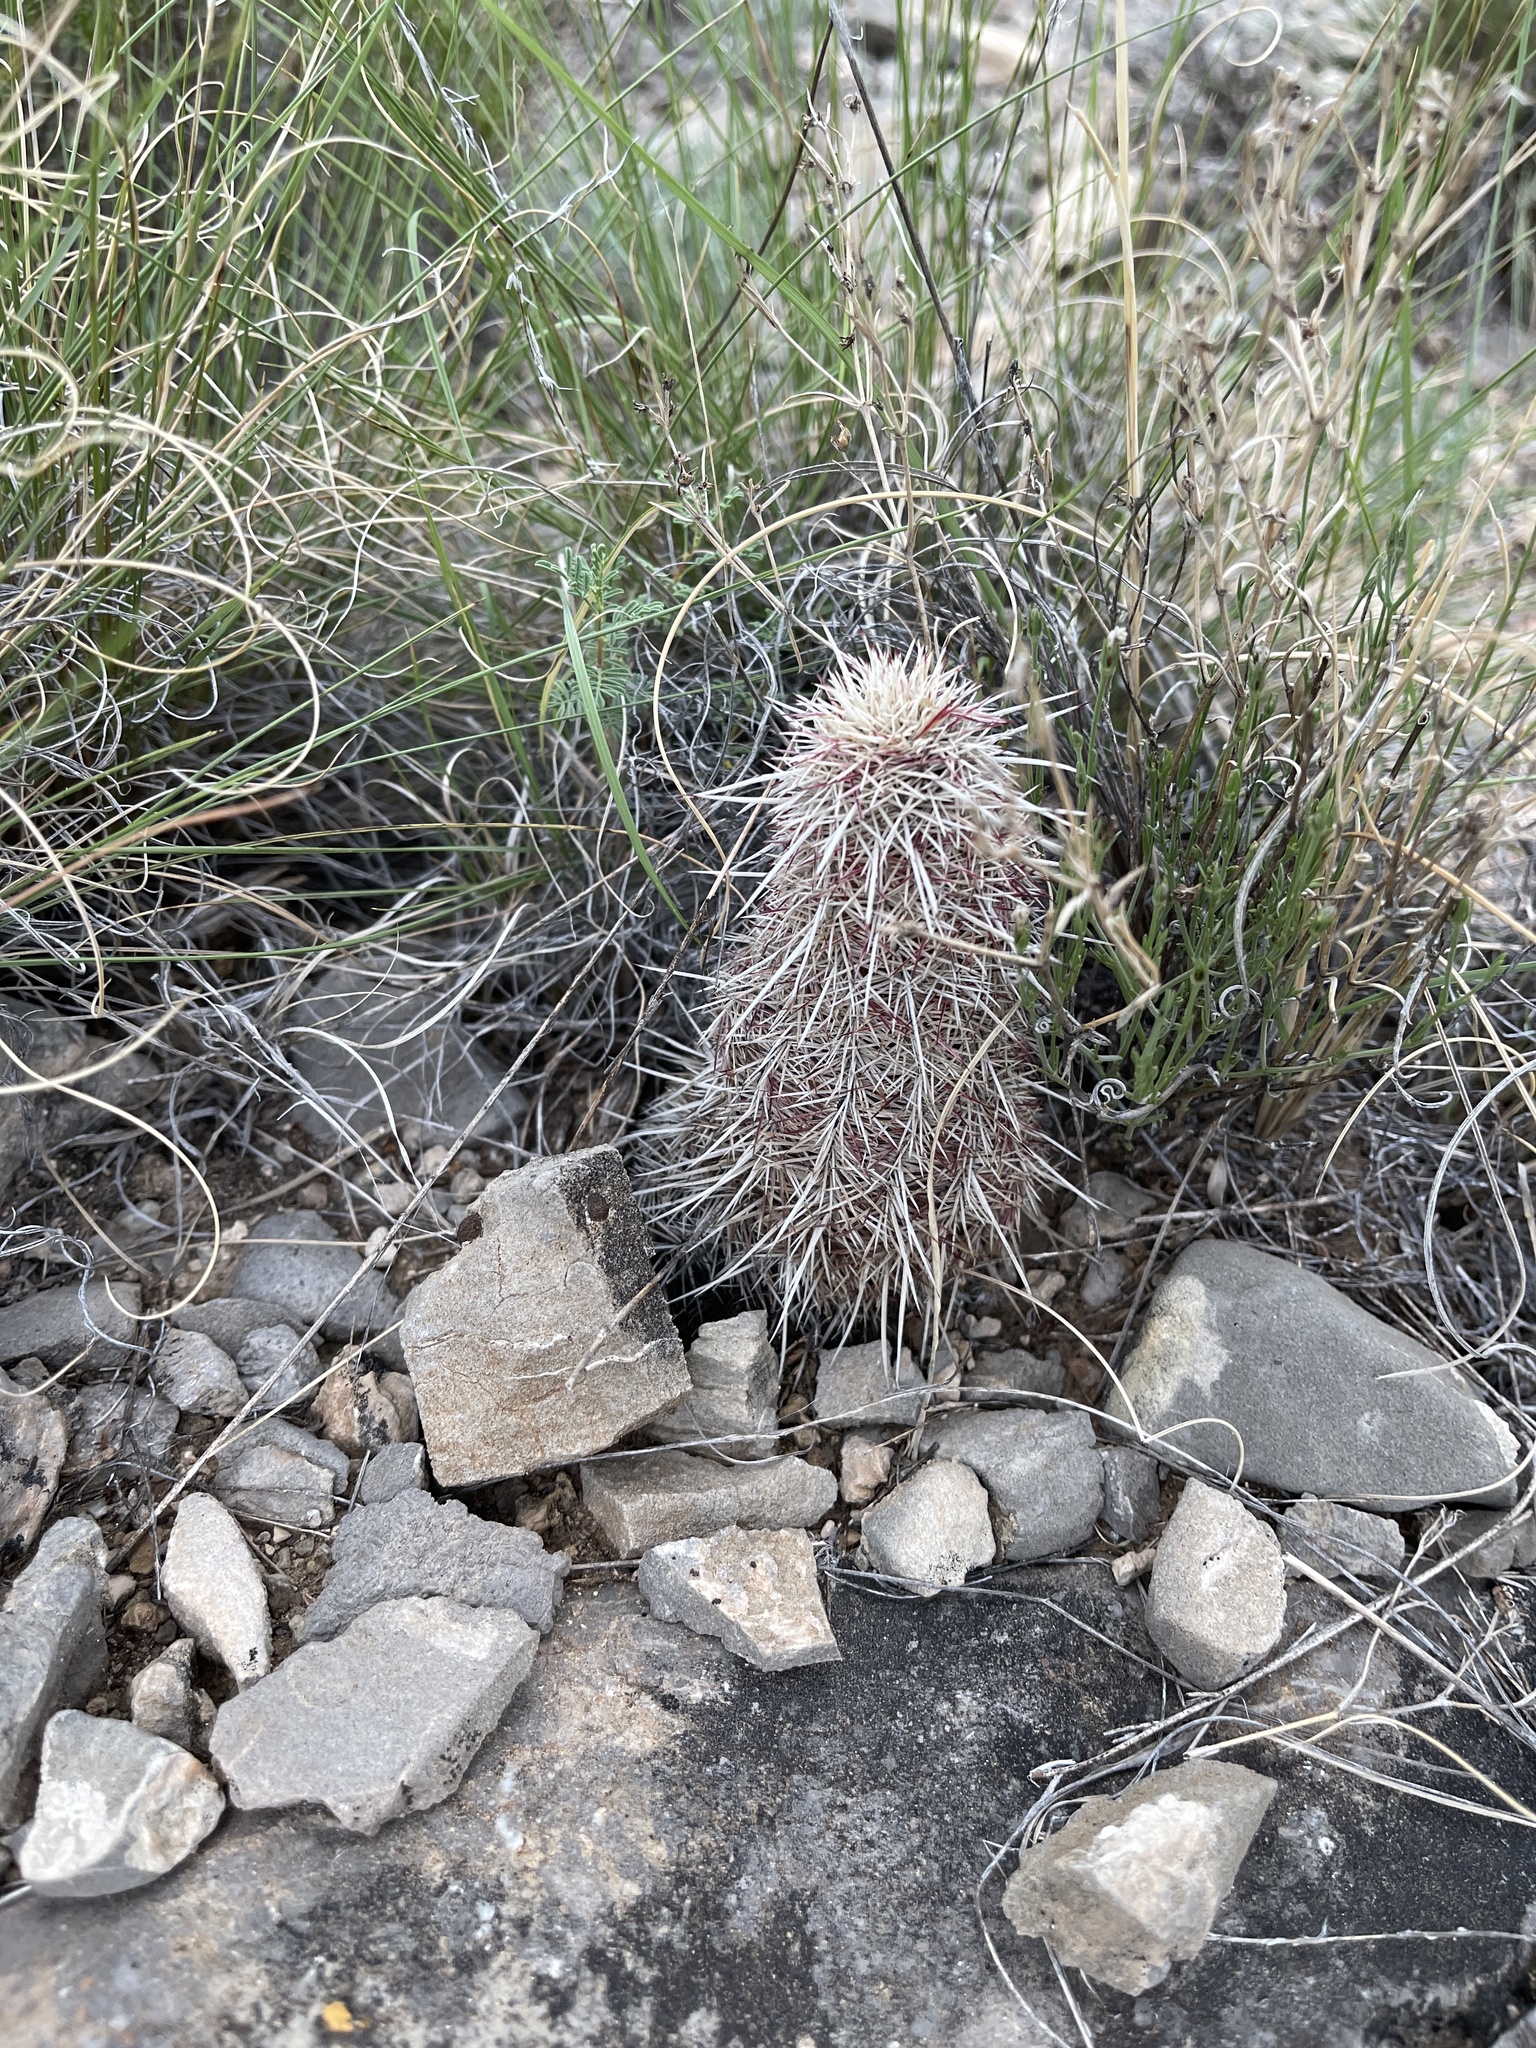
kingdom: Plantae
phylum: Tracheophyta
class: Magnoliopsida
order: Caryophyllales
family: Cactaceae
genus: Echinocereus
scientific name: Echinocereus viridiflorus
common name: Nylon hedgehog cactus
